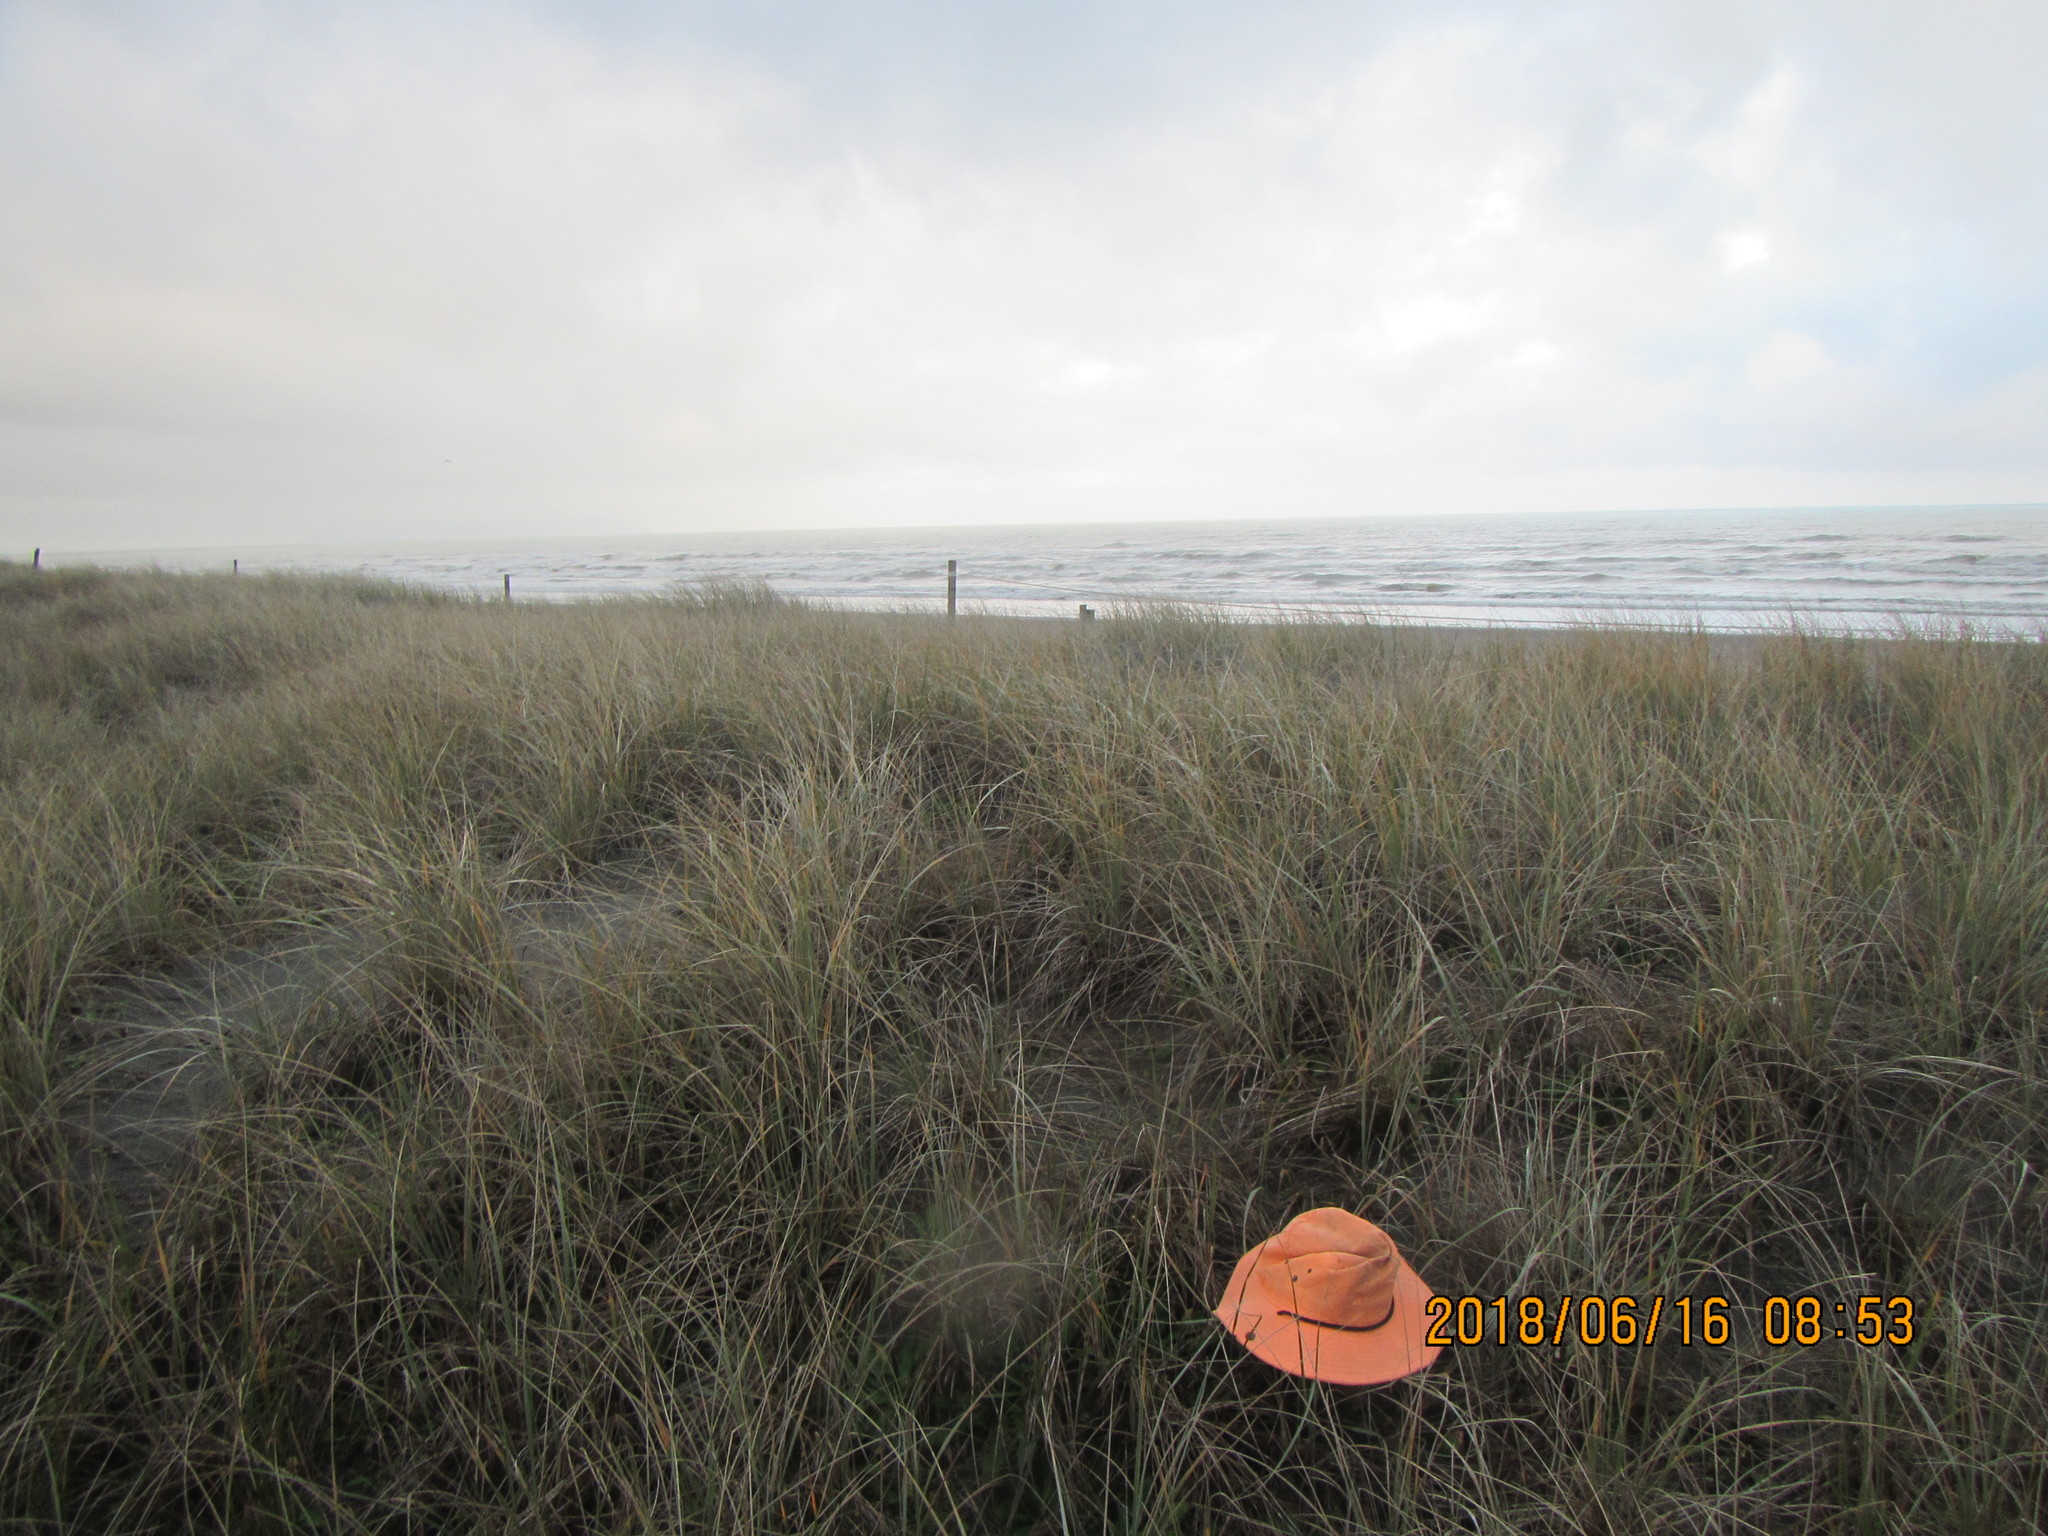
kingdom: Animalia
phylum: Arthropoda
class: Arachnida
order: Araneae
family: Theridiidae
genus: Steatoda
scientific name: Steatoda capensis
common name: Cobweb weaver
